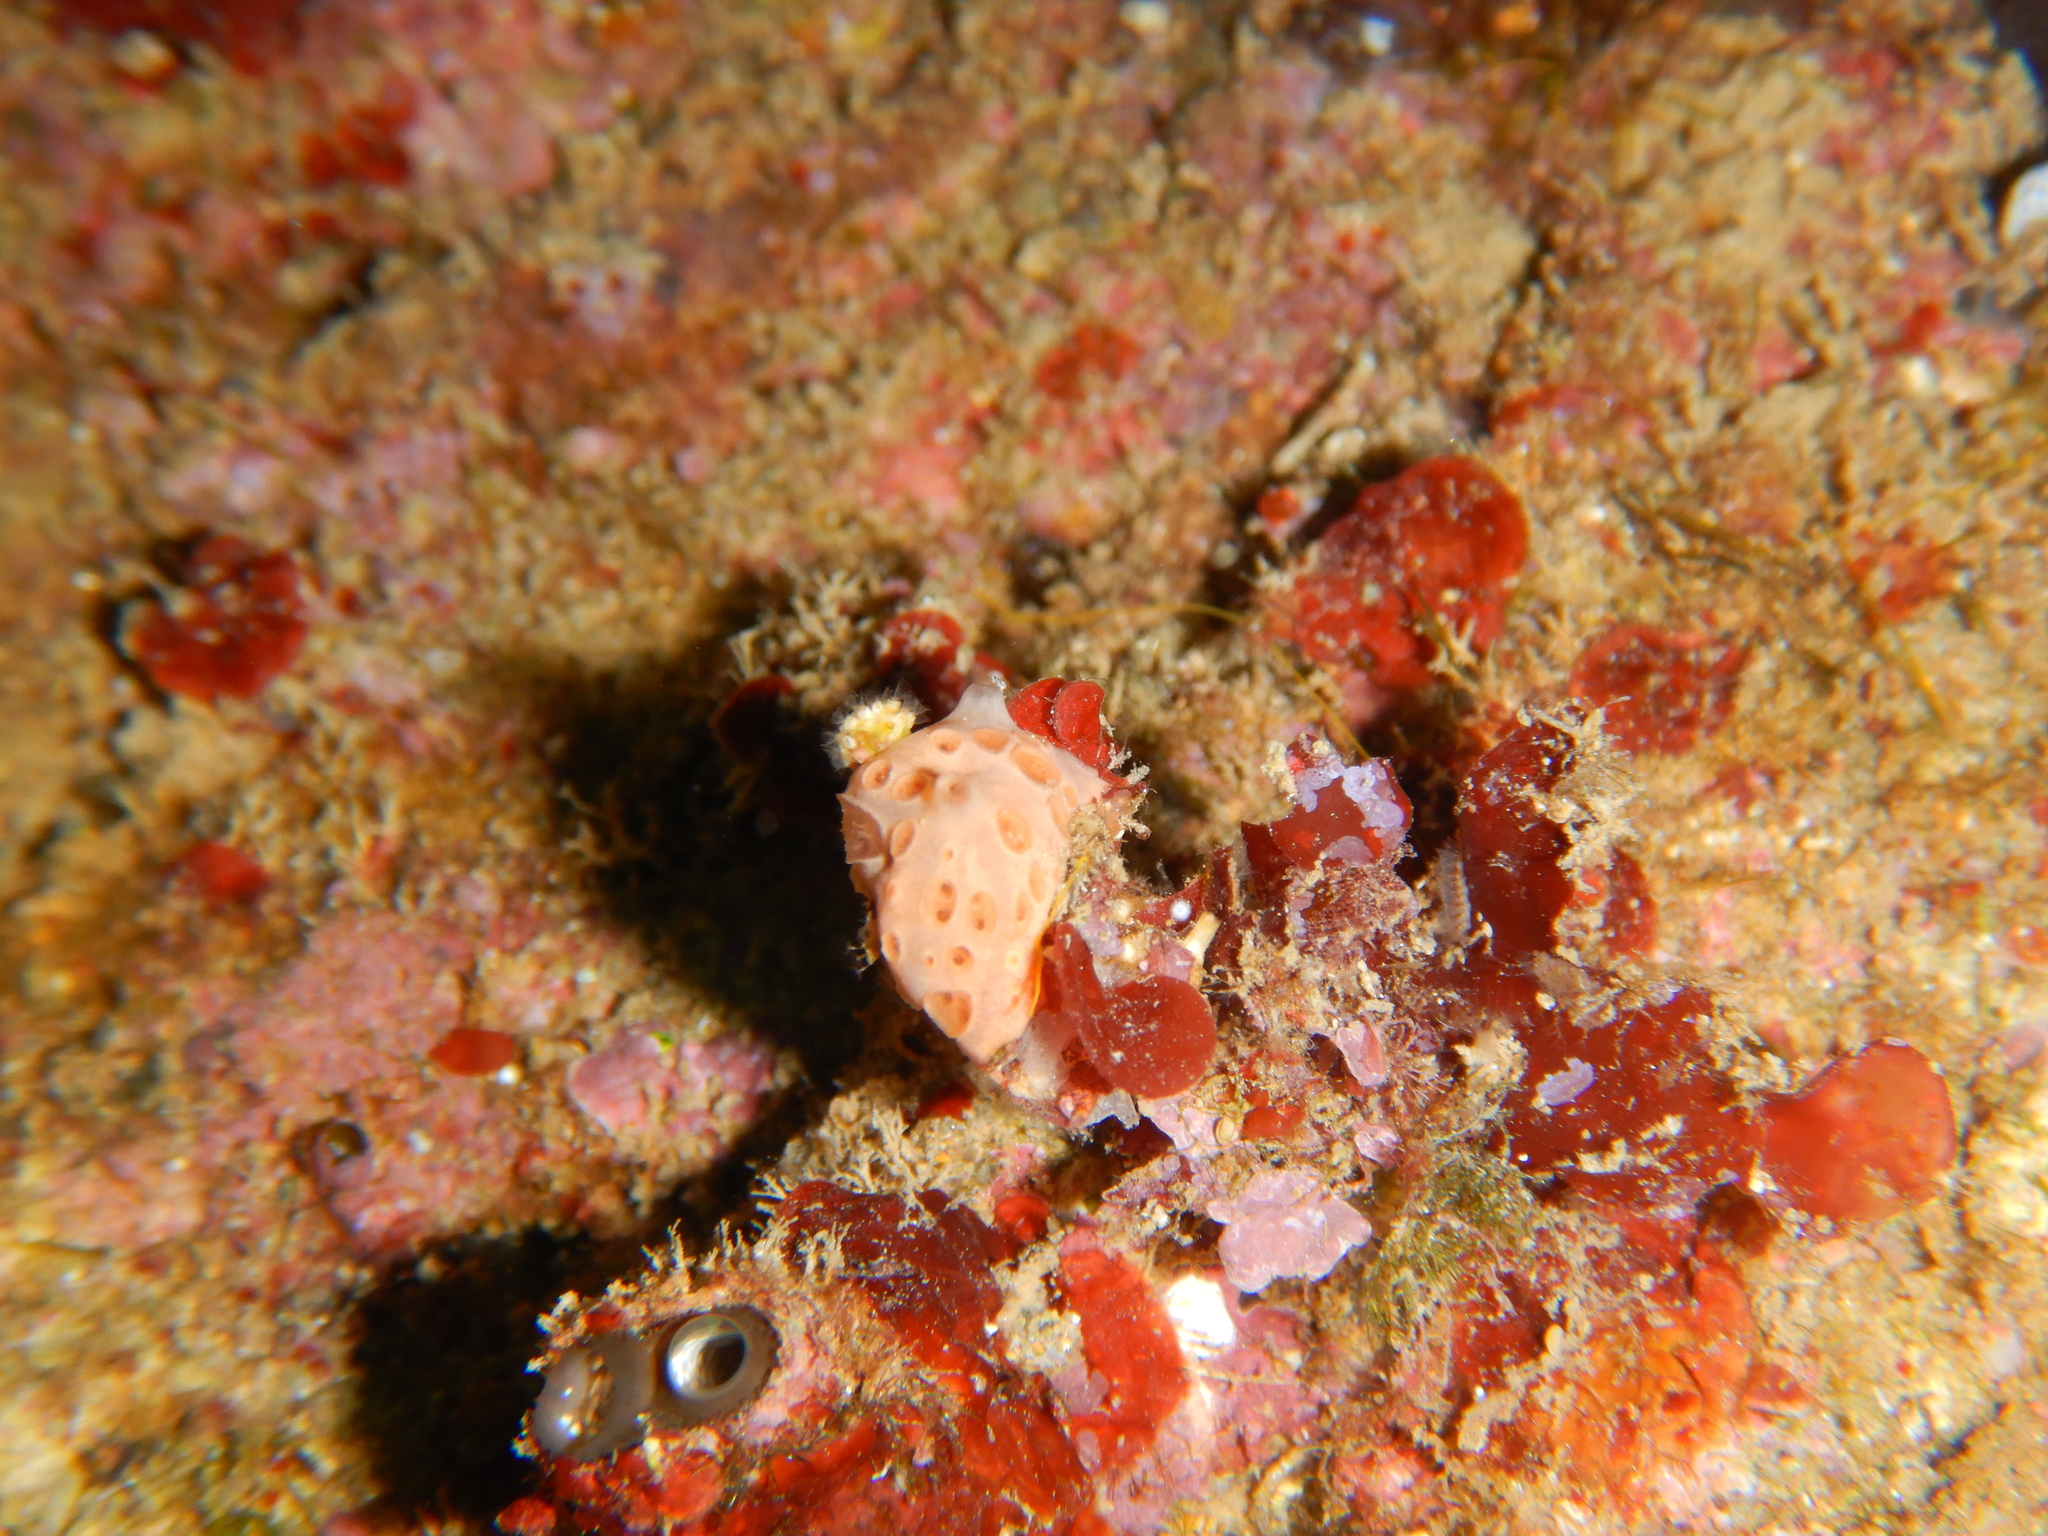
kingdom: Animalia
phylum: Porifera
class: Demospongiae
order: Poecilosclerida
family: Hymedesmiidae
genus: Hemimycale
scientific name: Hemimycale columella
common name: Crater sponge
